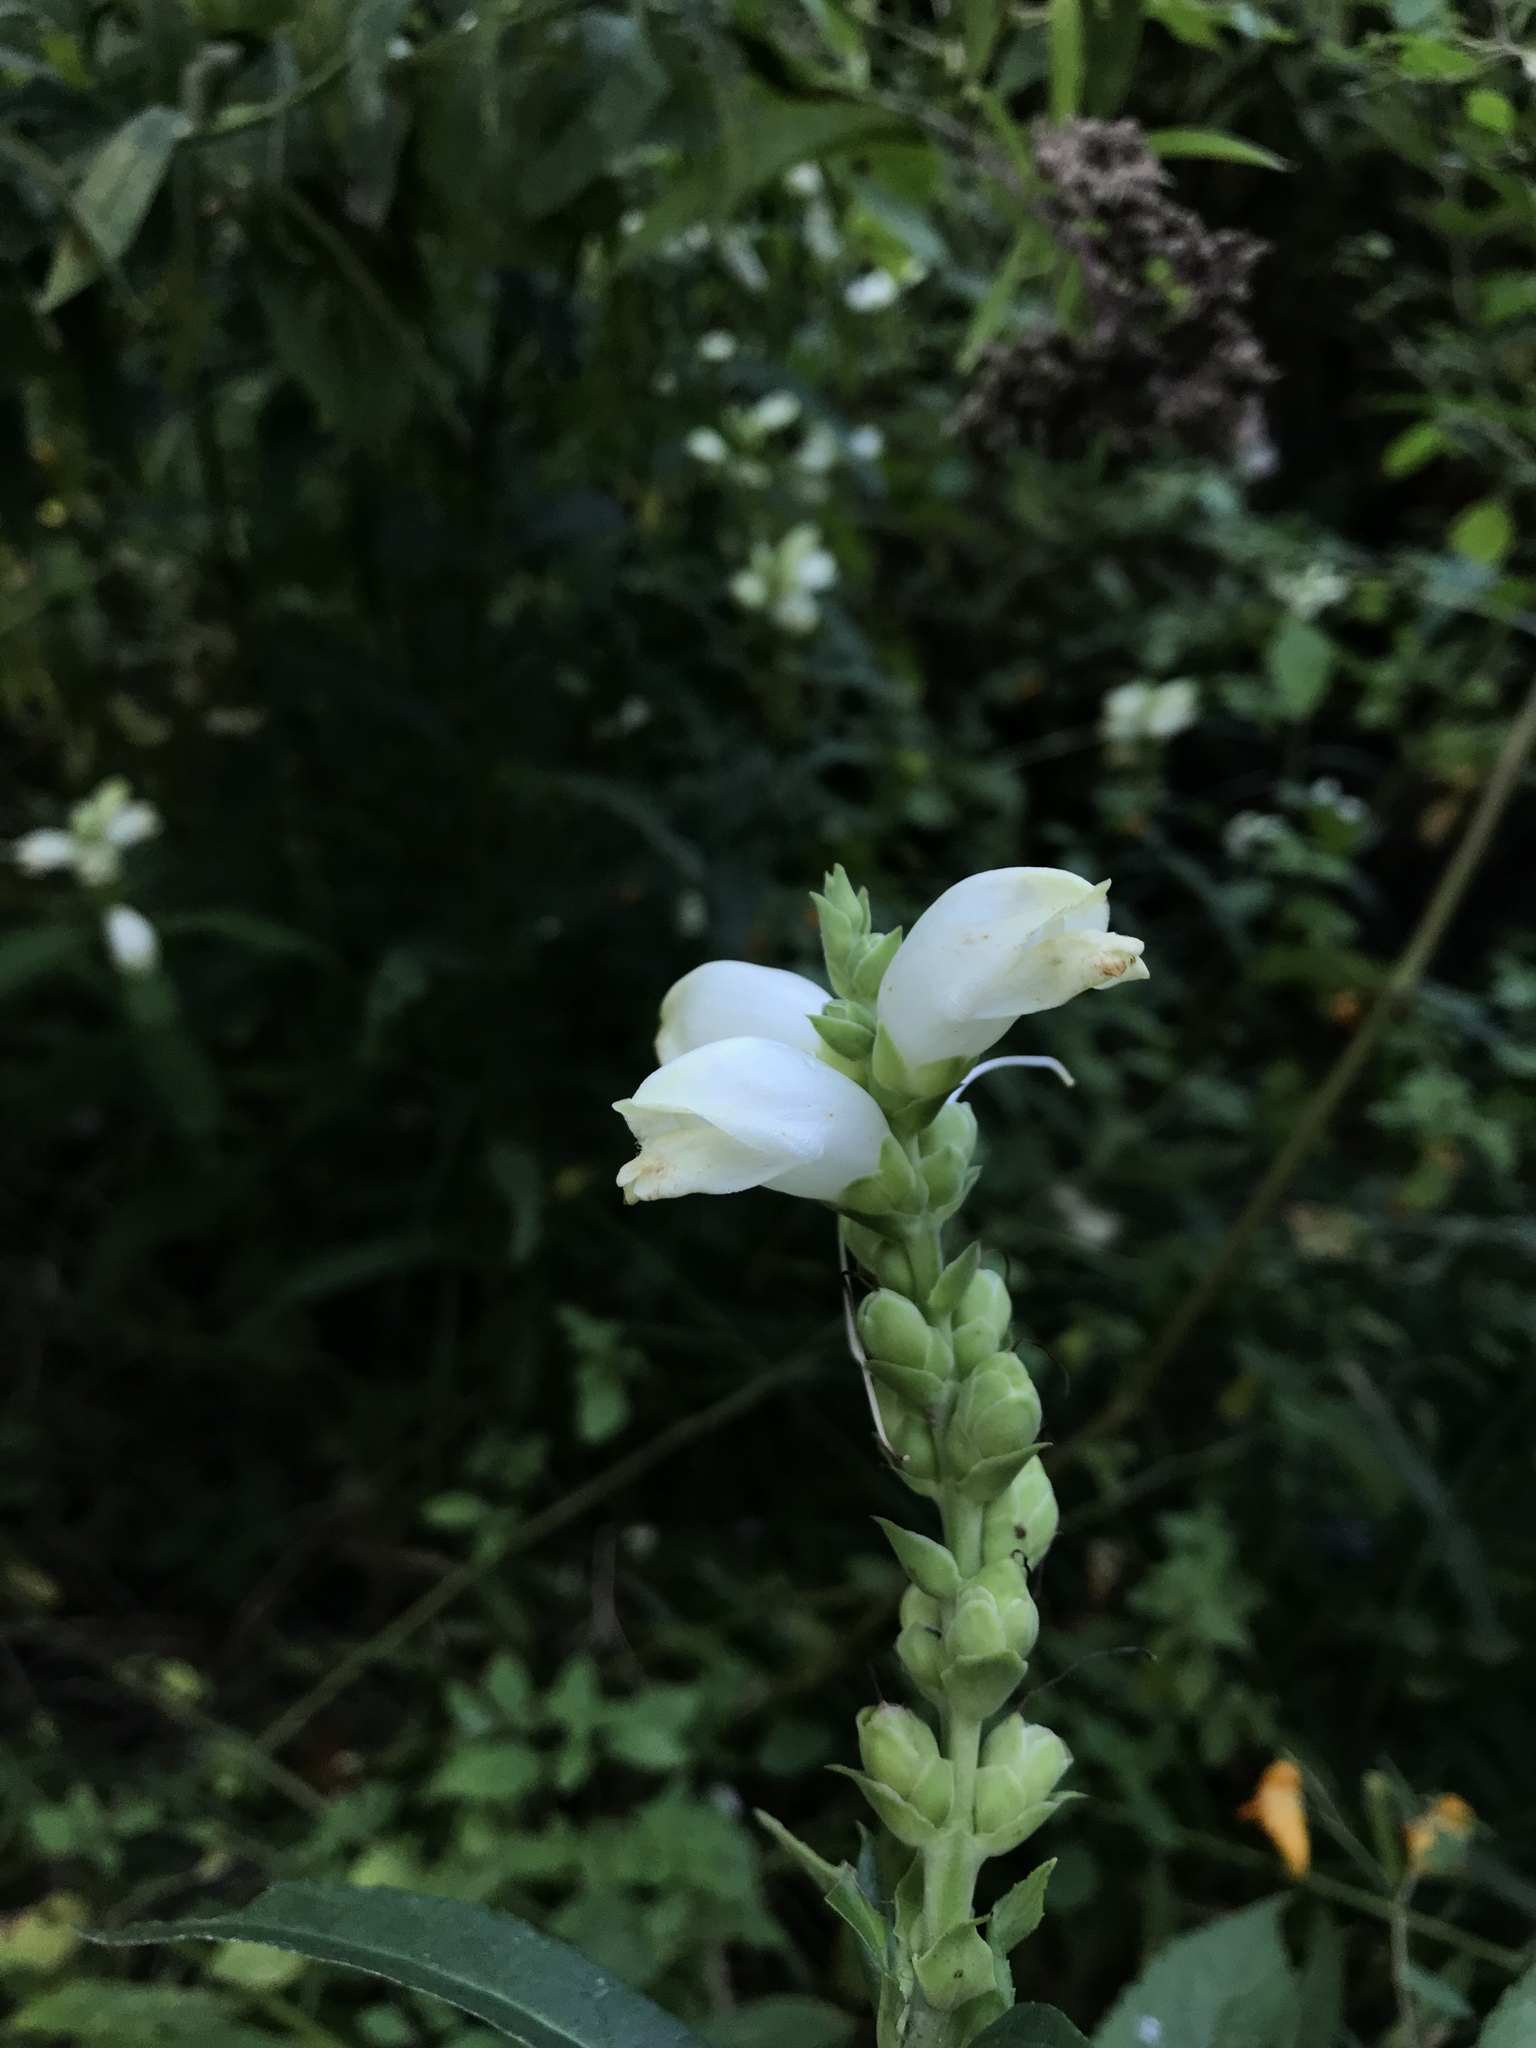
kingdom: Plantae
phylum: Tracheophyta
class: Magnoliopsida
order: Lamiales
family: Plantaginaceae
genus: Chelone
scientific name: Chelone glabra
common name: Snakehead
